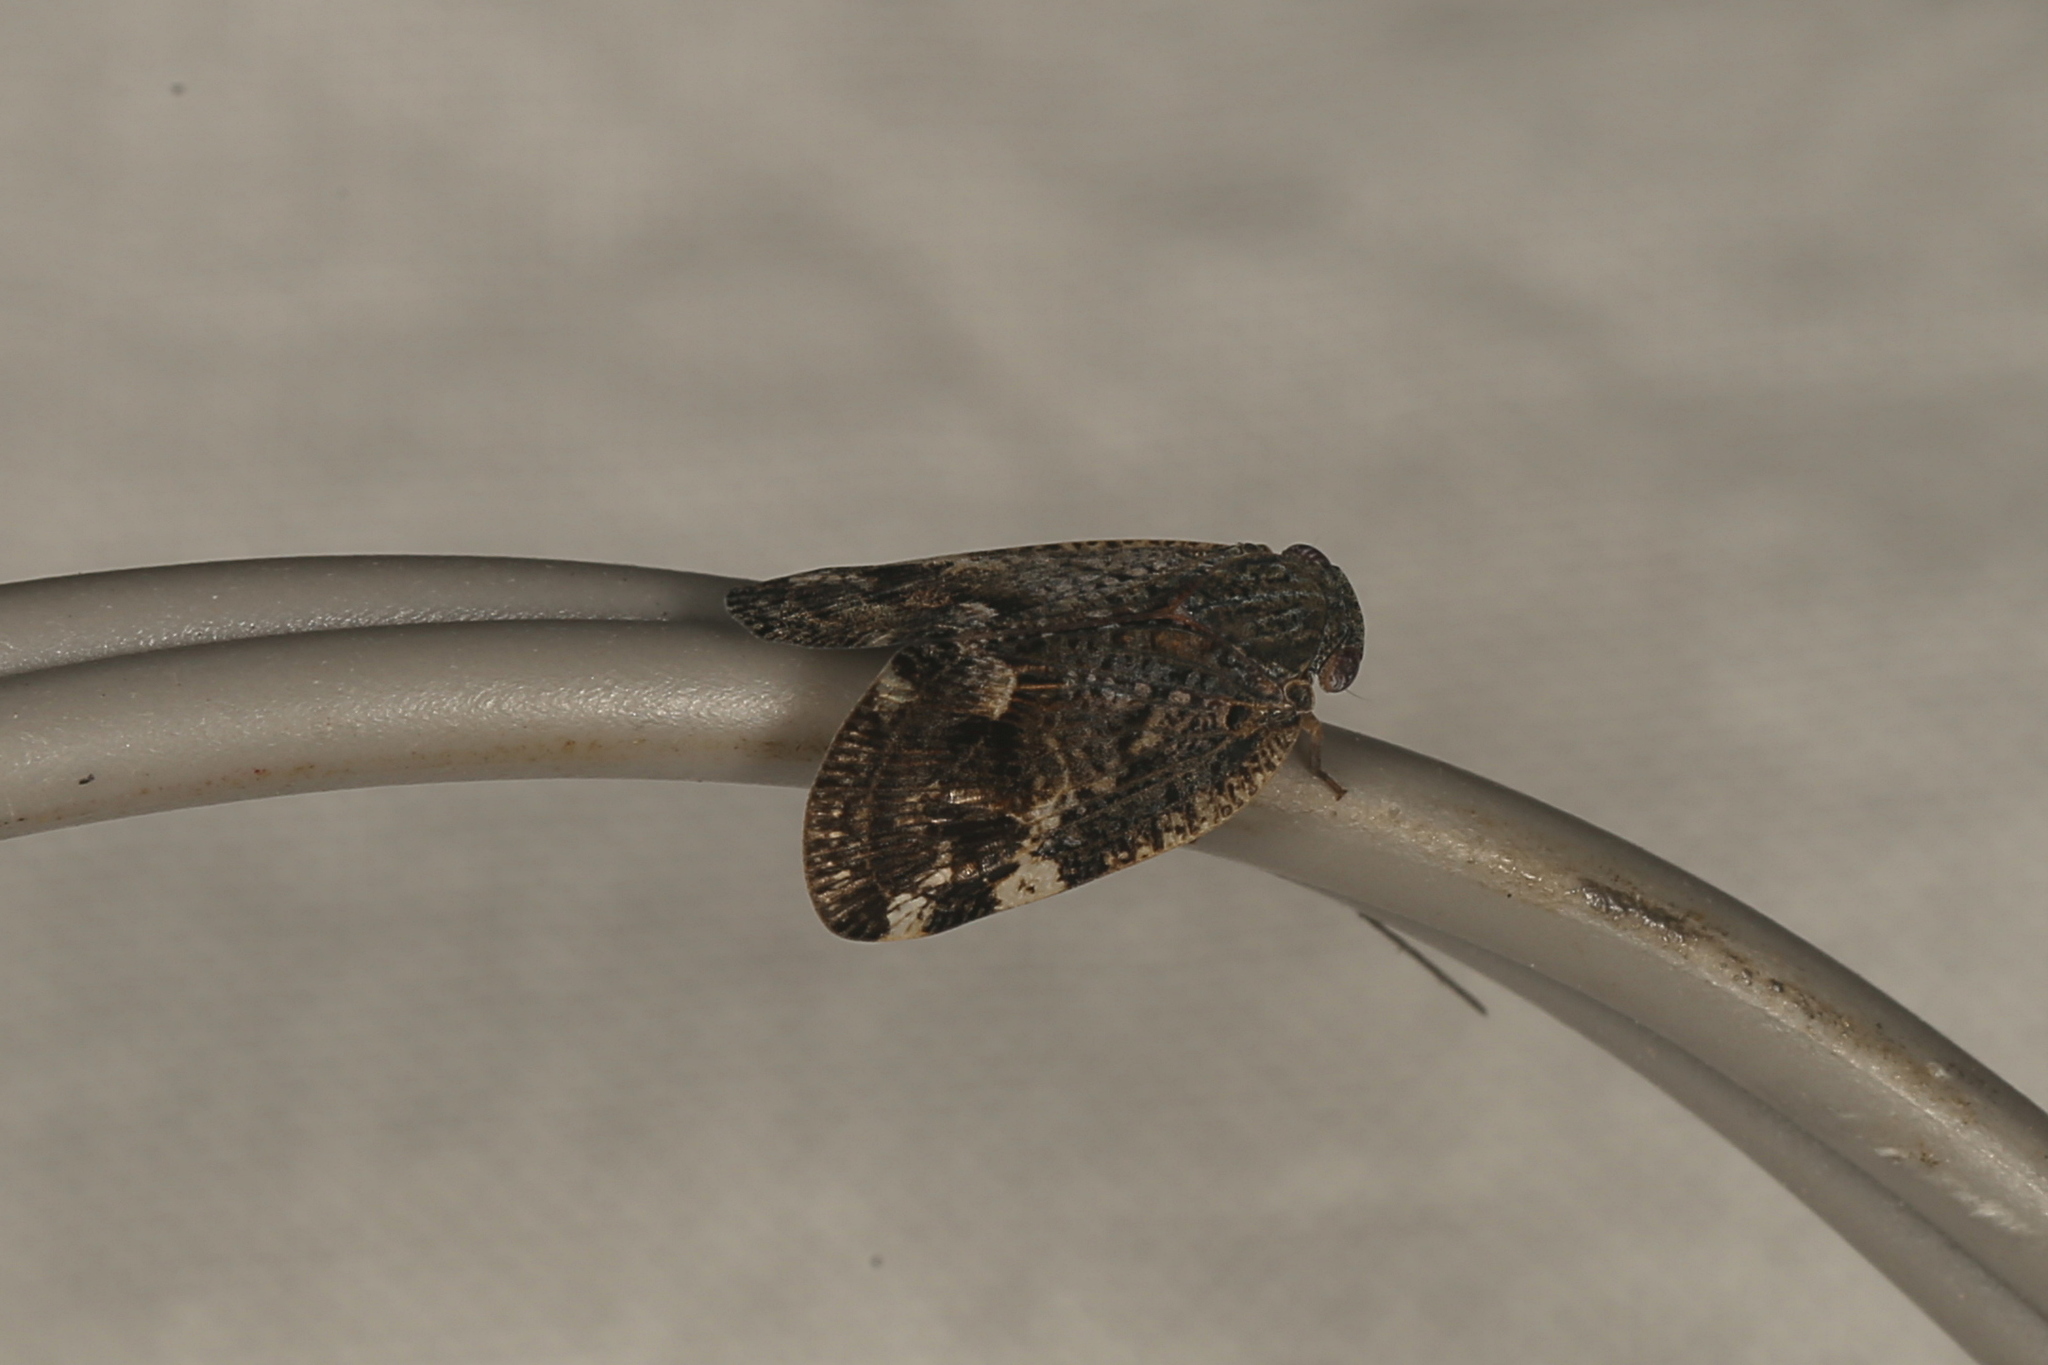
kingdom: Animalia
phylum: Arthropoda
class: Insecta
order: Hemiptera
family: Ricaniidae
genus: Aprivesa
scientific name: Aprivesa exuta
